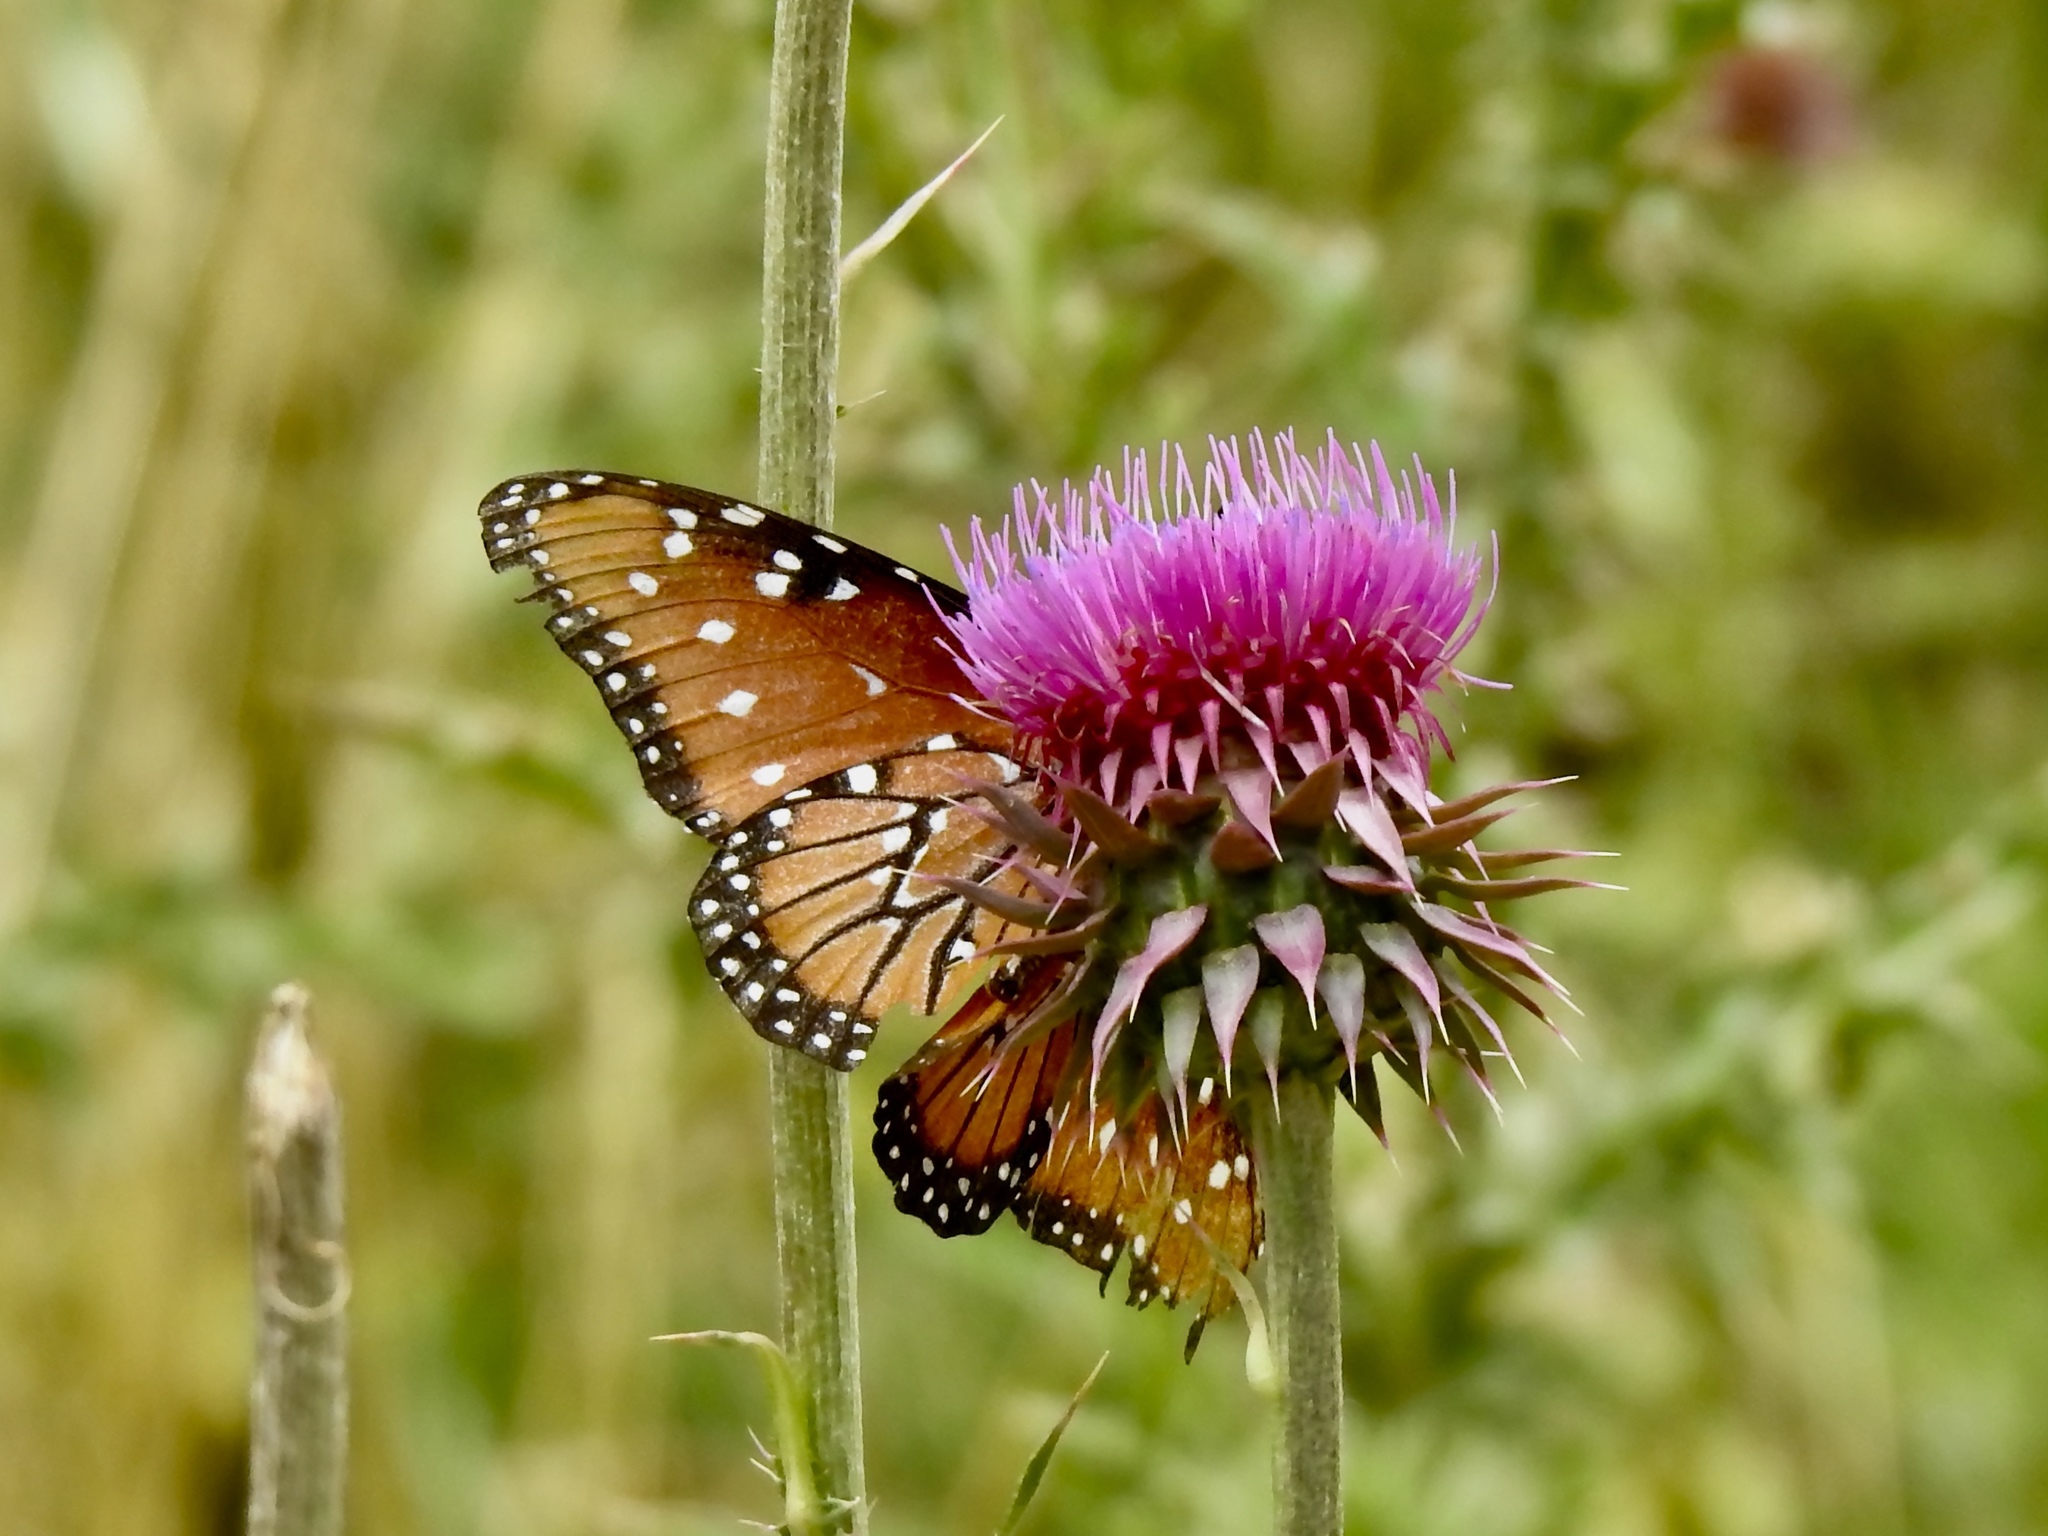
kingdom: Animalia
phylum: Arthropoda
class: Insecta
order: Lepidoptera
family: Nymphalidae
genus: Danaus
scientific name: Danaus gilippus
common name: Queen
